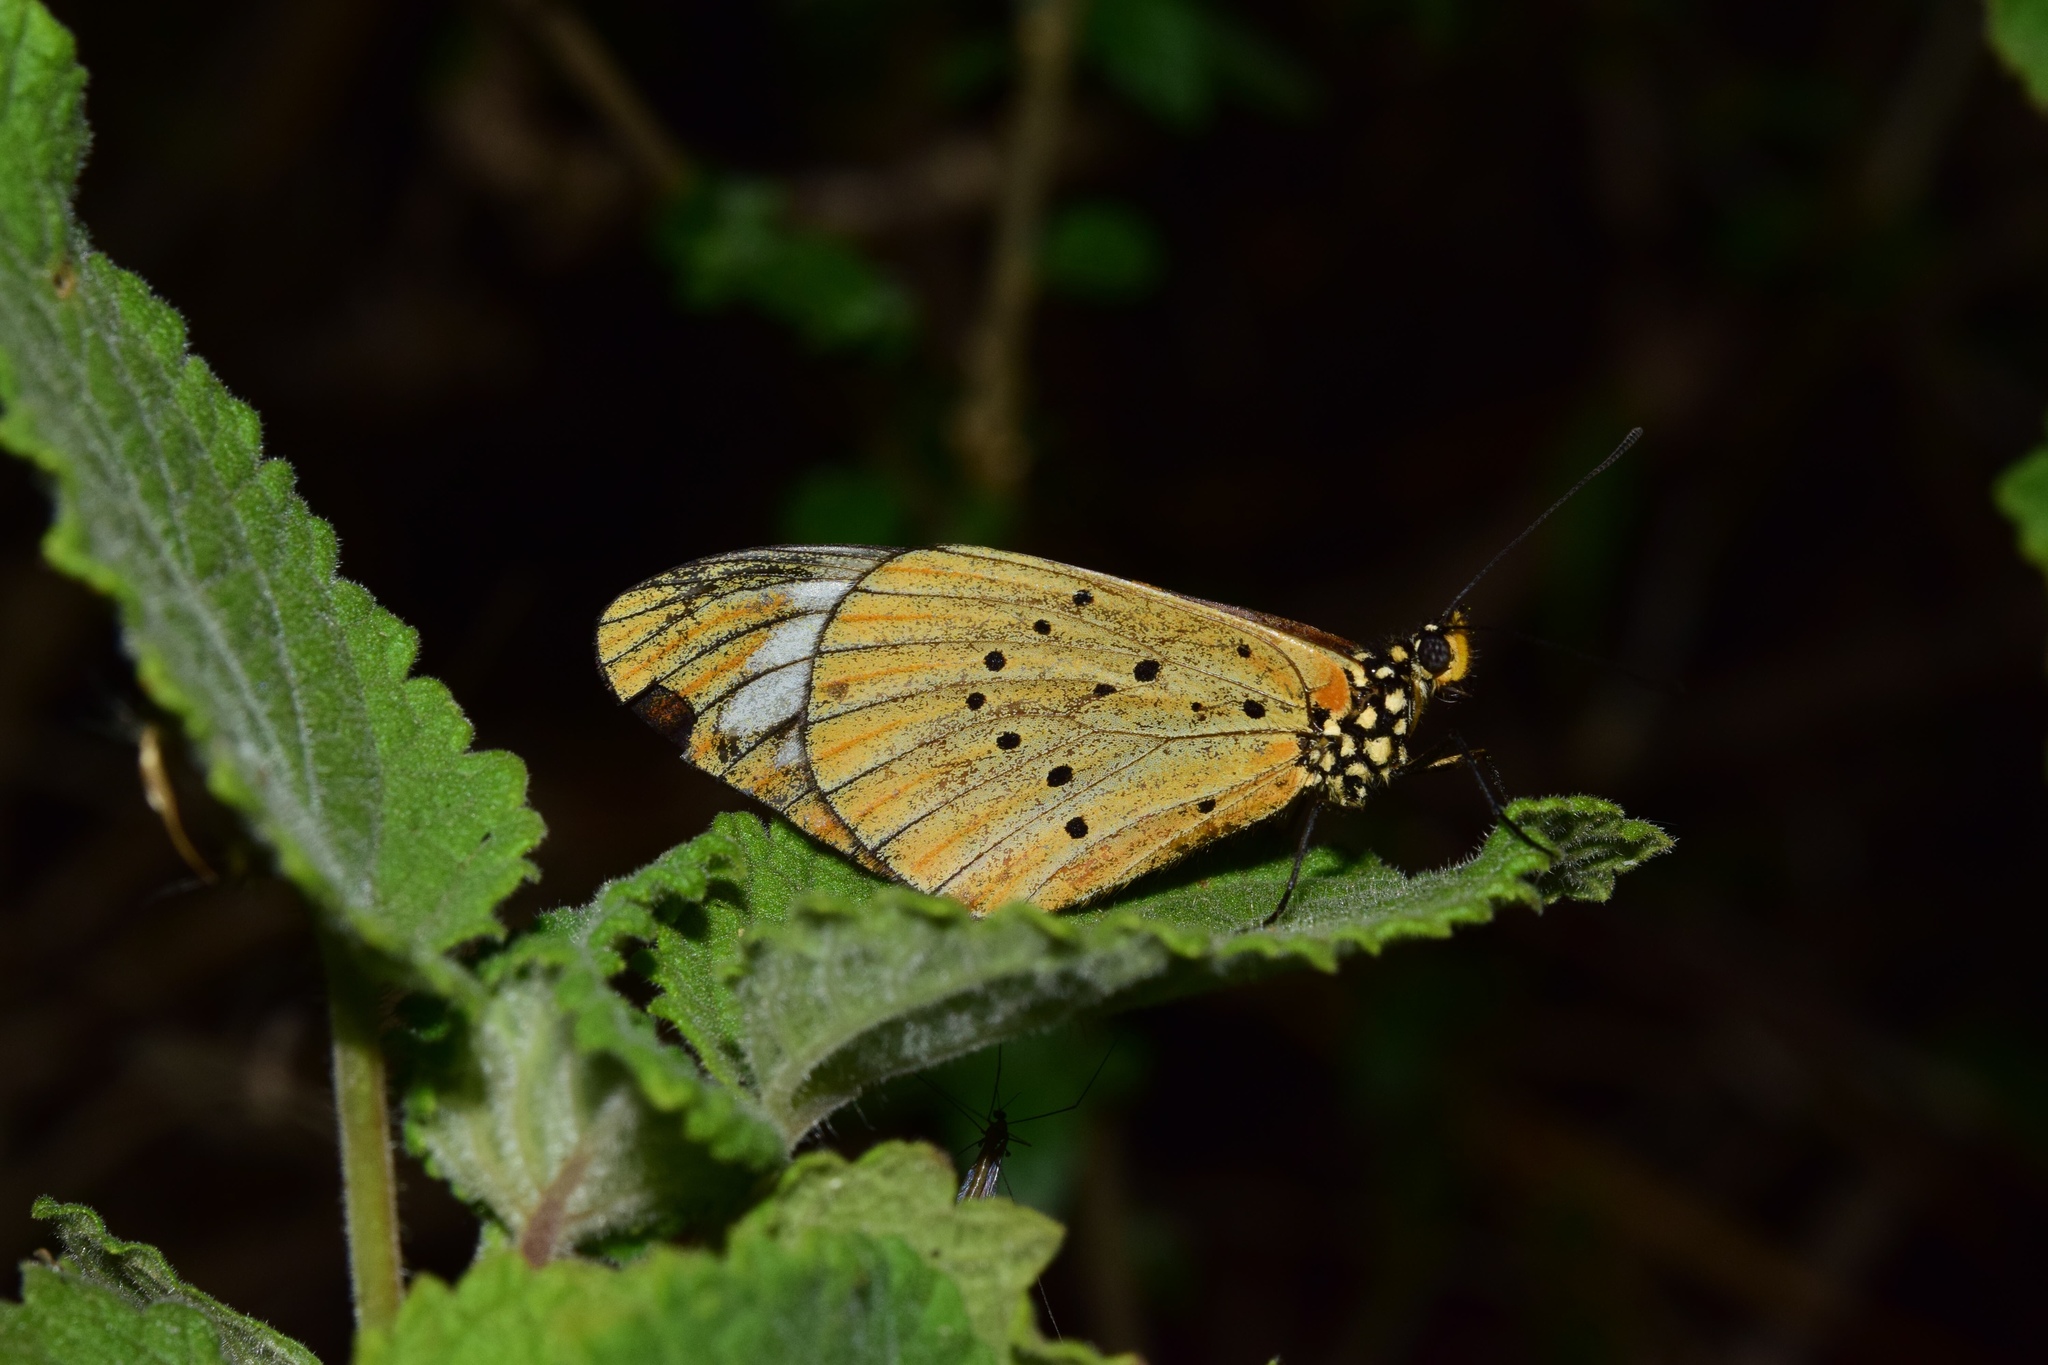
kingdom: Animalia
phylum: Arthropoda
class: Insecta
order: Lepidoptera
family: Nymphalidae
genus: Acraea
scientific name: Acraea Telchinia encedon
